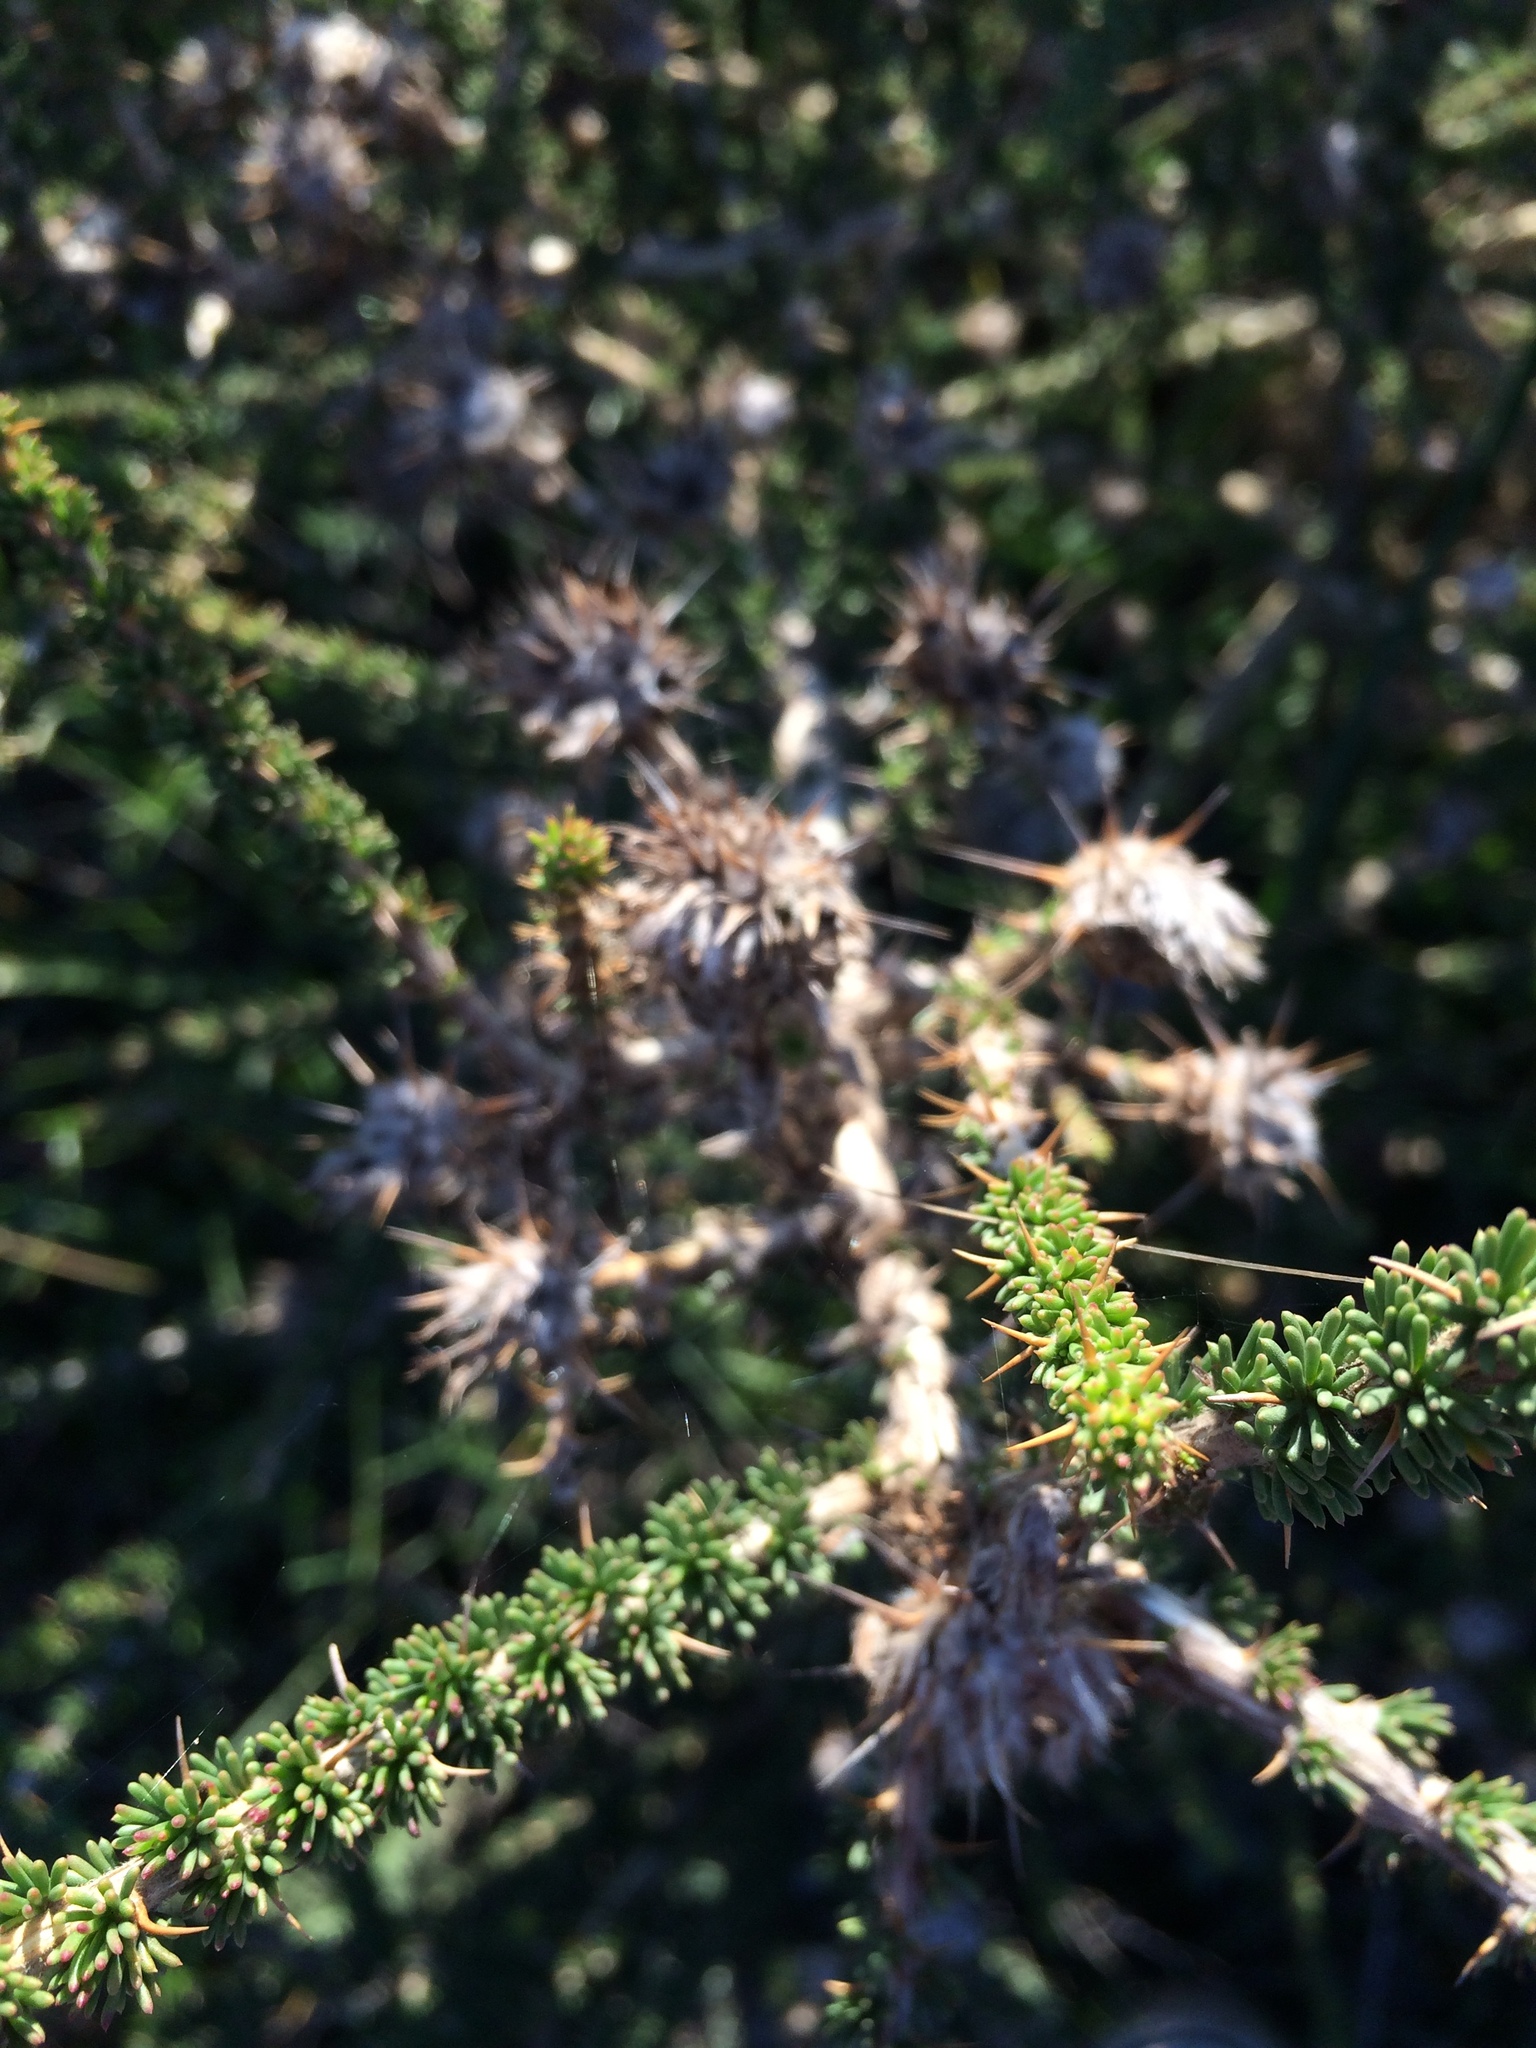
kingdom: Plantae
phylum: Tracheophyta
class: Magnoliopsida
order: Fabales
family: Fabaceae
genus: Aspalathus
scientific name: Aspalathus aculeata
